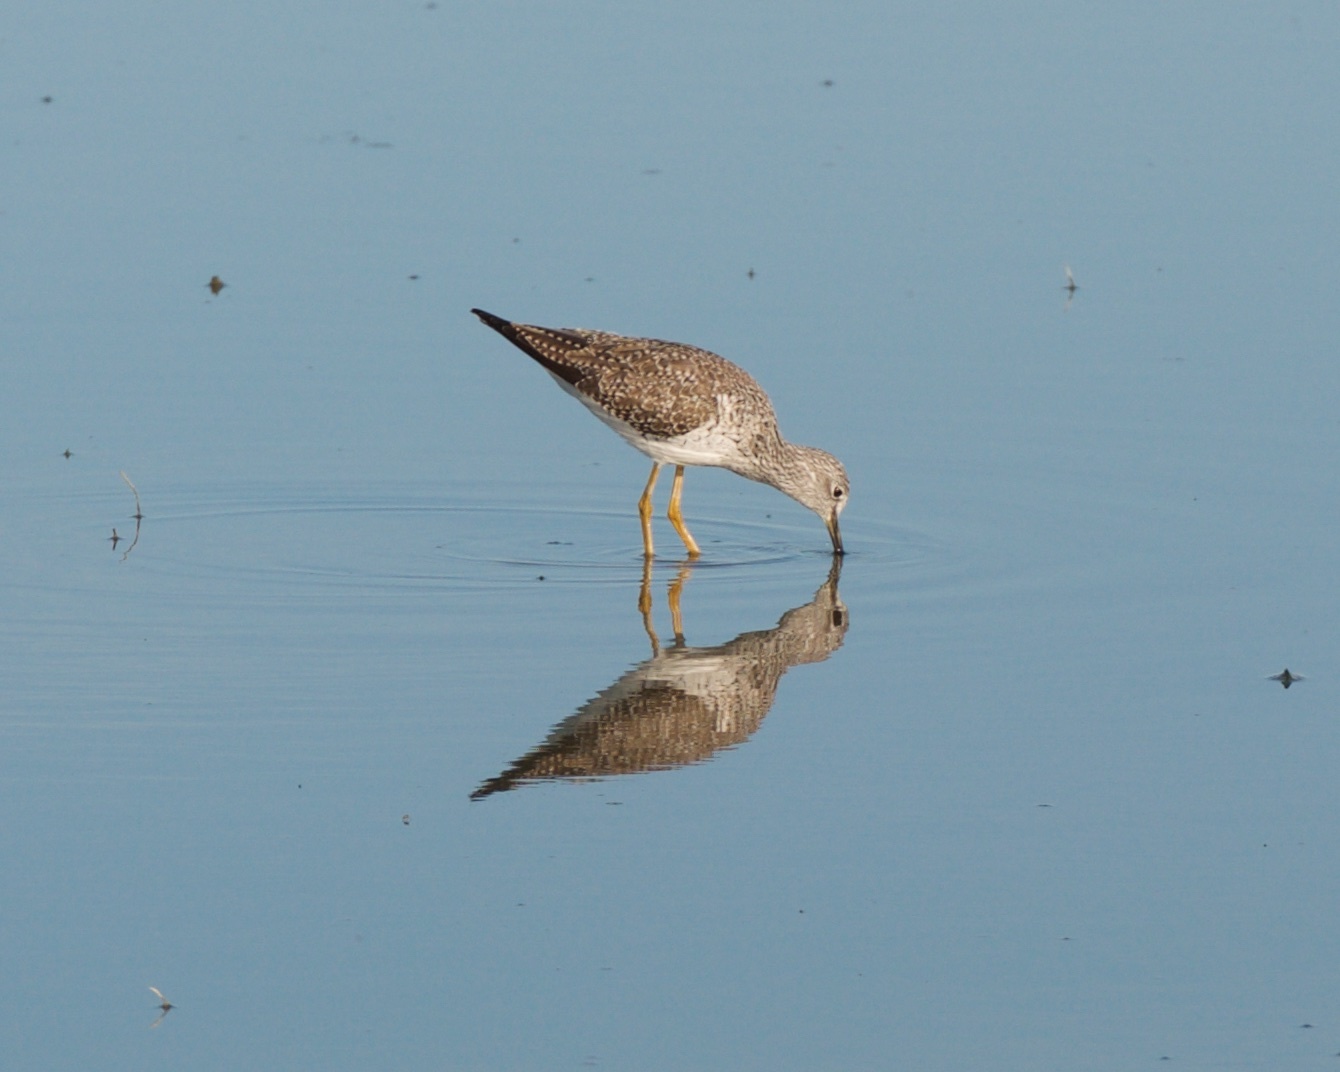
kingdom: Animalia
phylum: Chordata
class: Aves
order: Charadriiformes
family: Scolopacidae
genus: Tringa
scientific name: Tringa melanoleuca
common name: Greater yellowlegs
